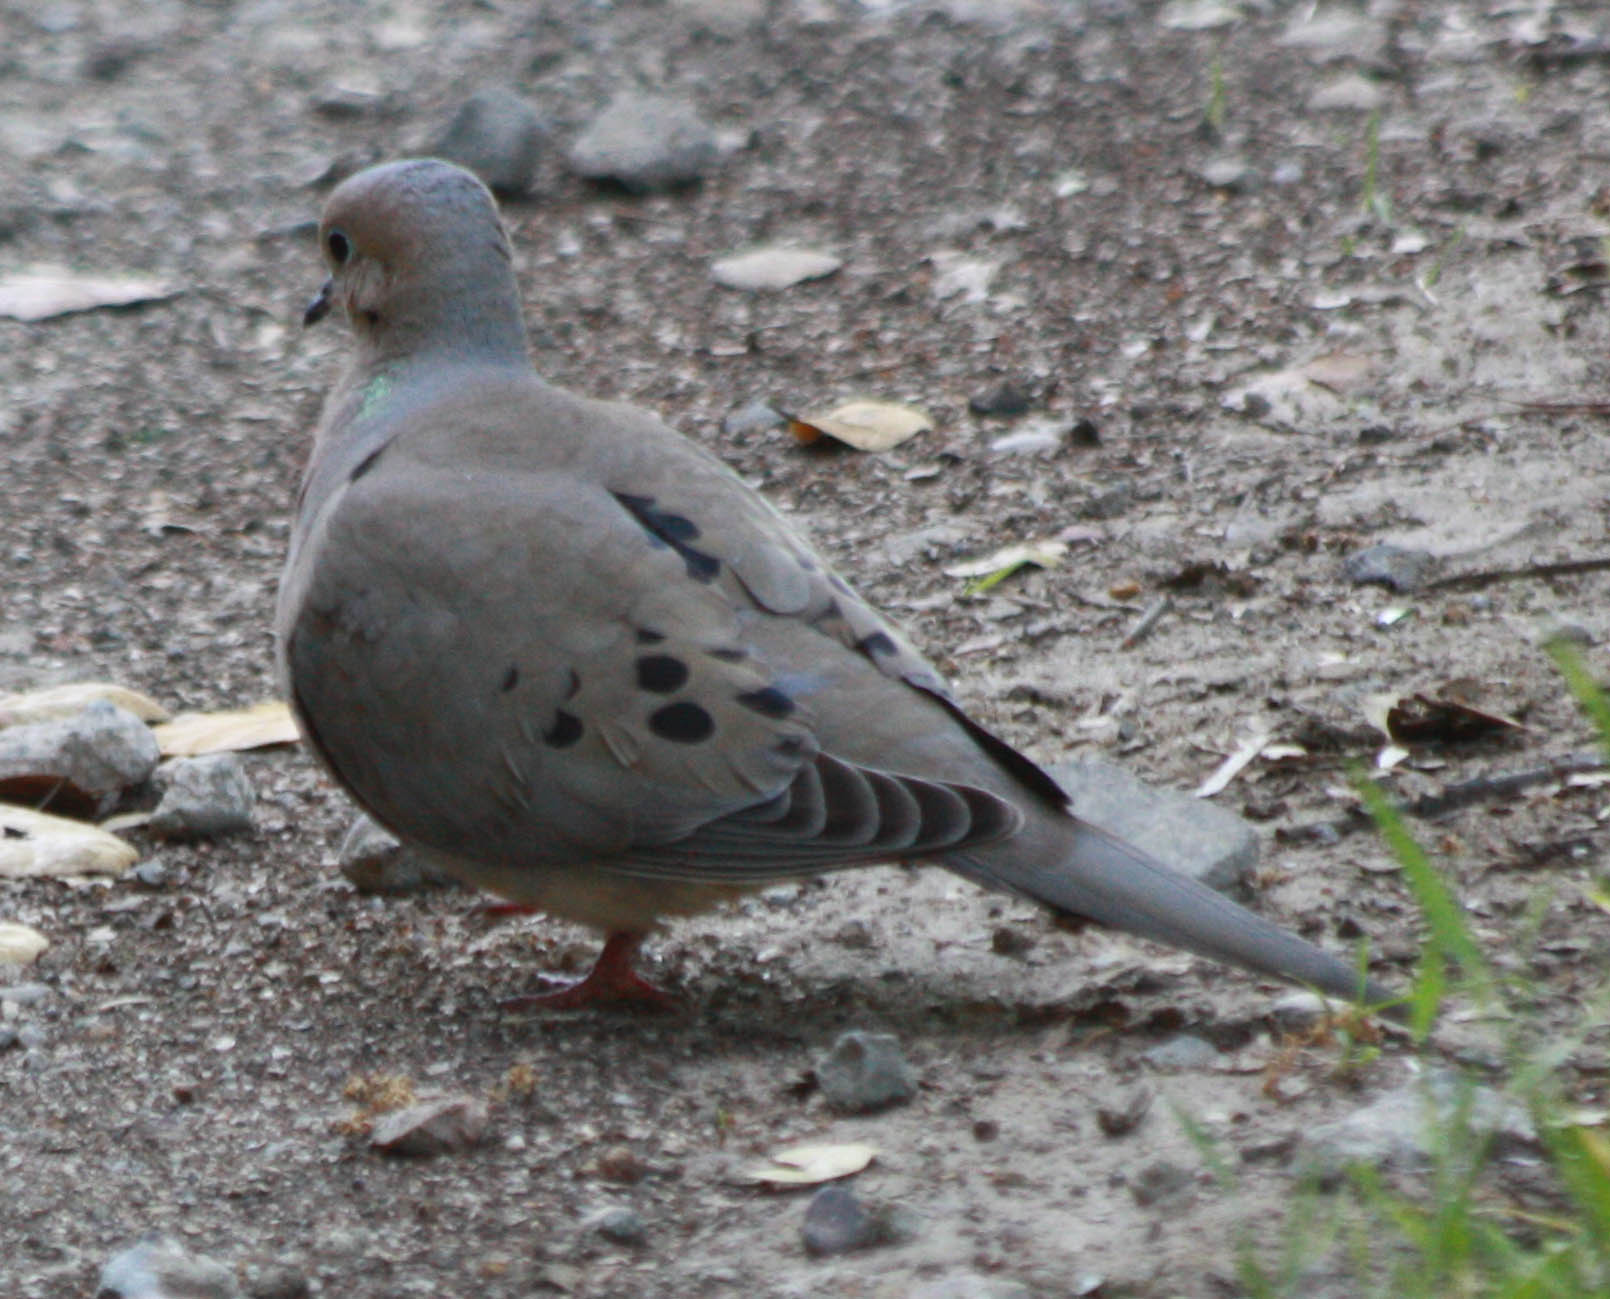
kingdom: Animalia
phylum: Chordata
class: Aves
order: Columbiformes
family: Columbidae
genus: Zenaida
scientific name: Zenaida macroura
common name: Mourning dove
